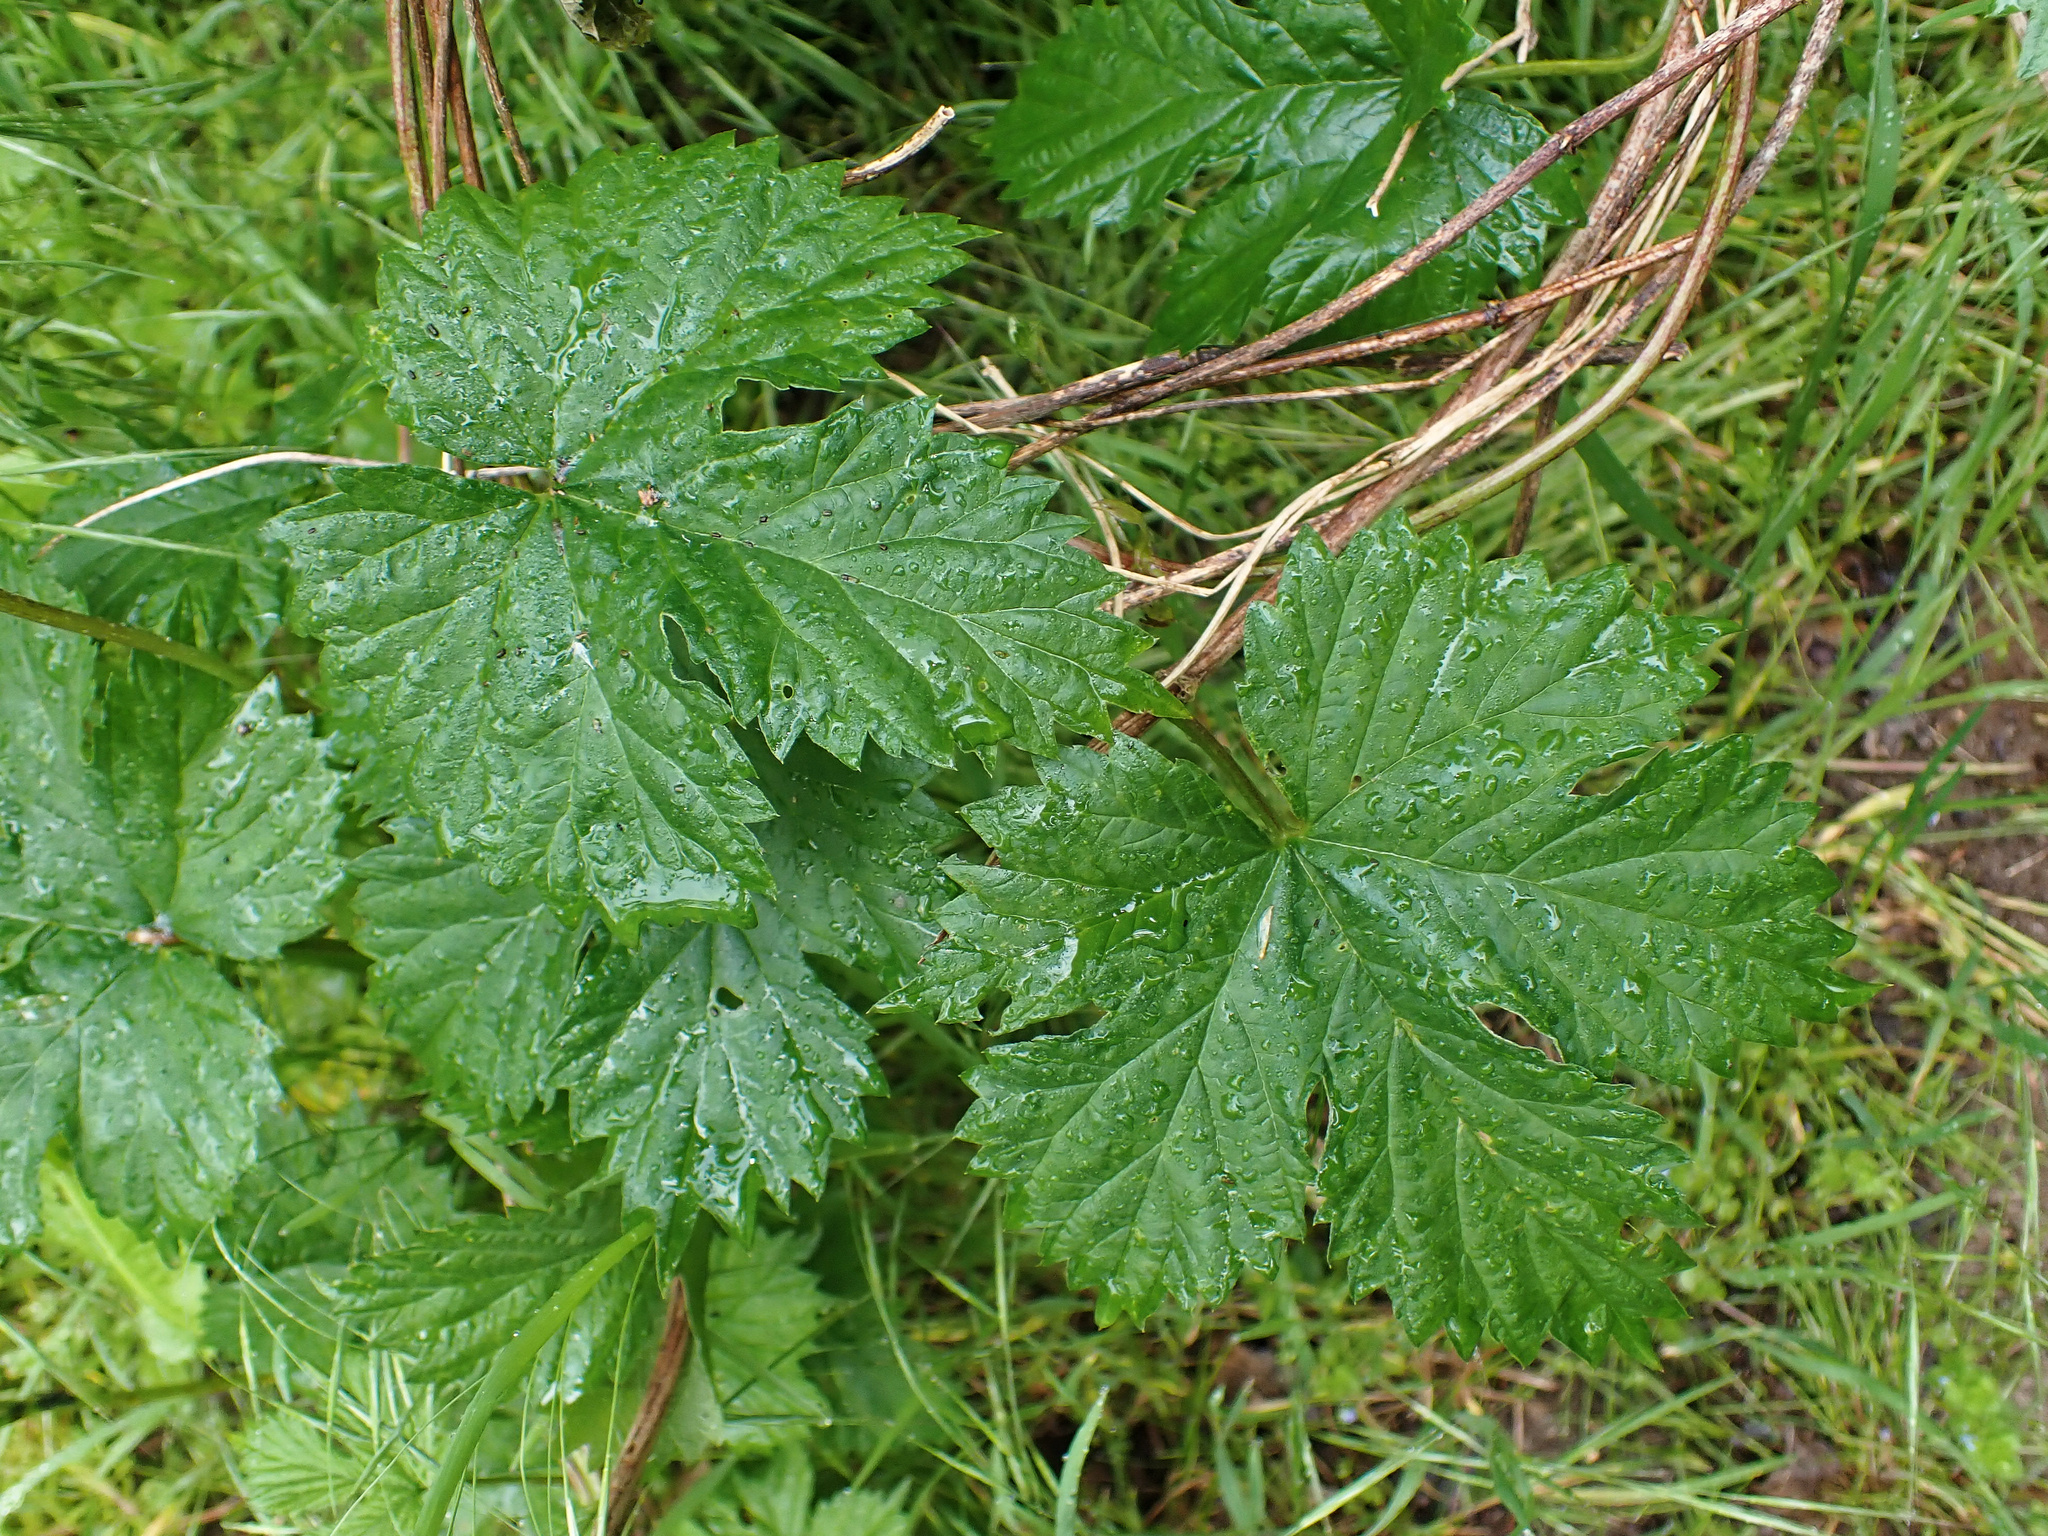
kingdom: Plantae
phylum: Tracheophyta
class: Magnoliopsida
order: Rosales
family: Cannabaceae
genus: Humulus
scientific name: Humulus lupulus
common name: Hop
